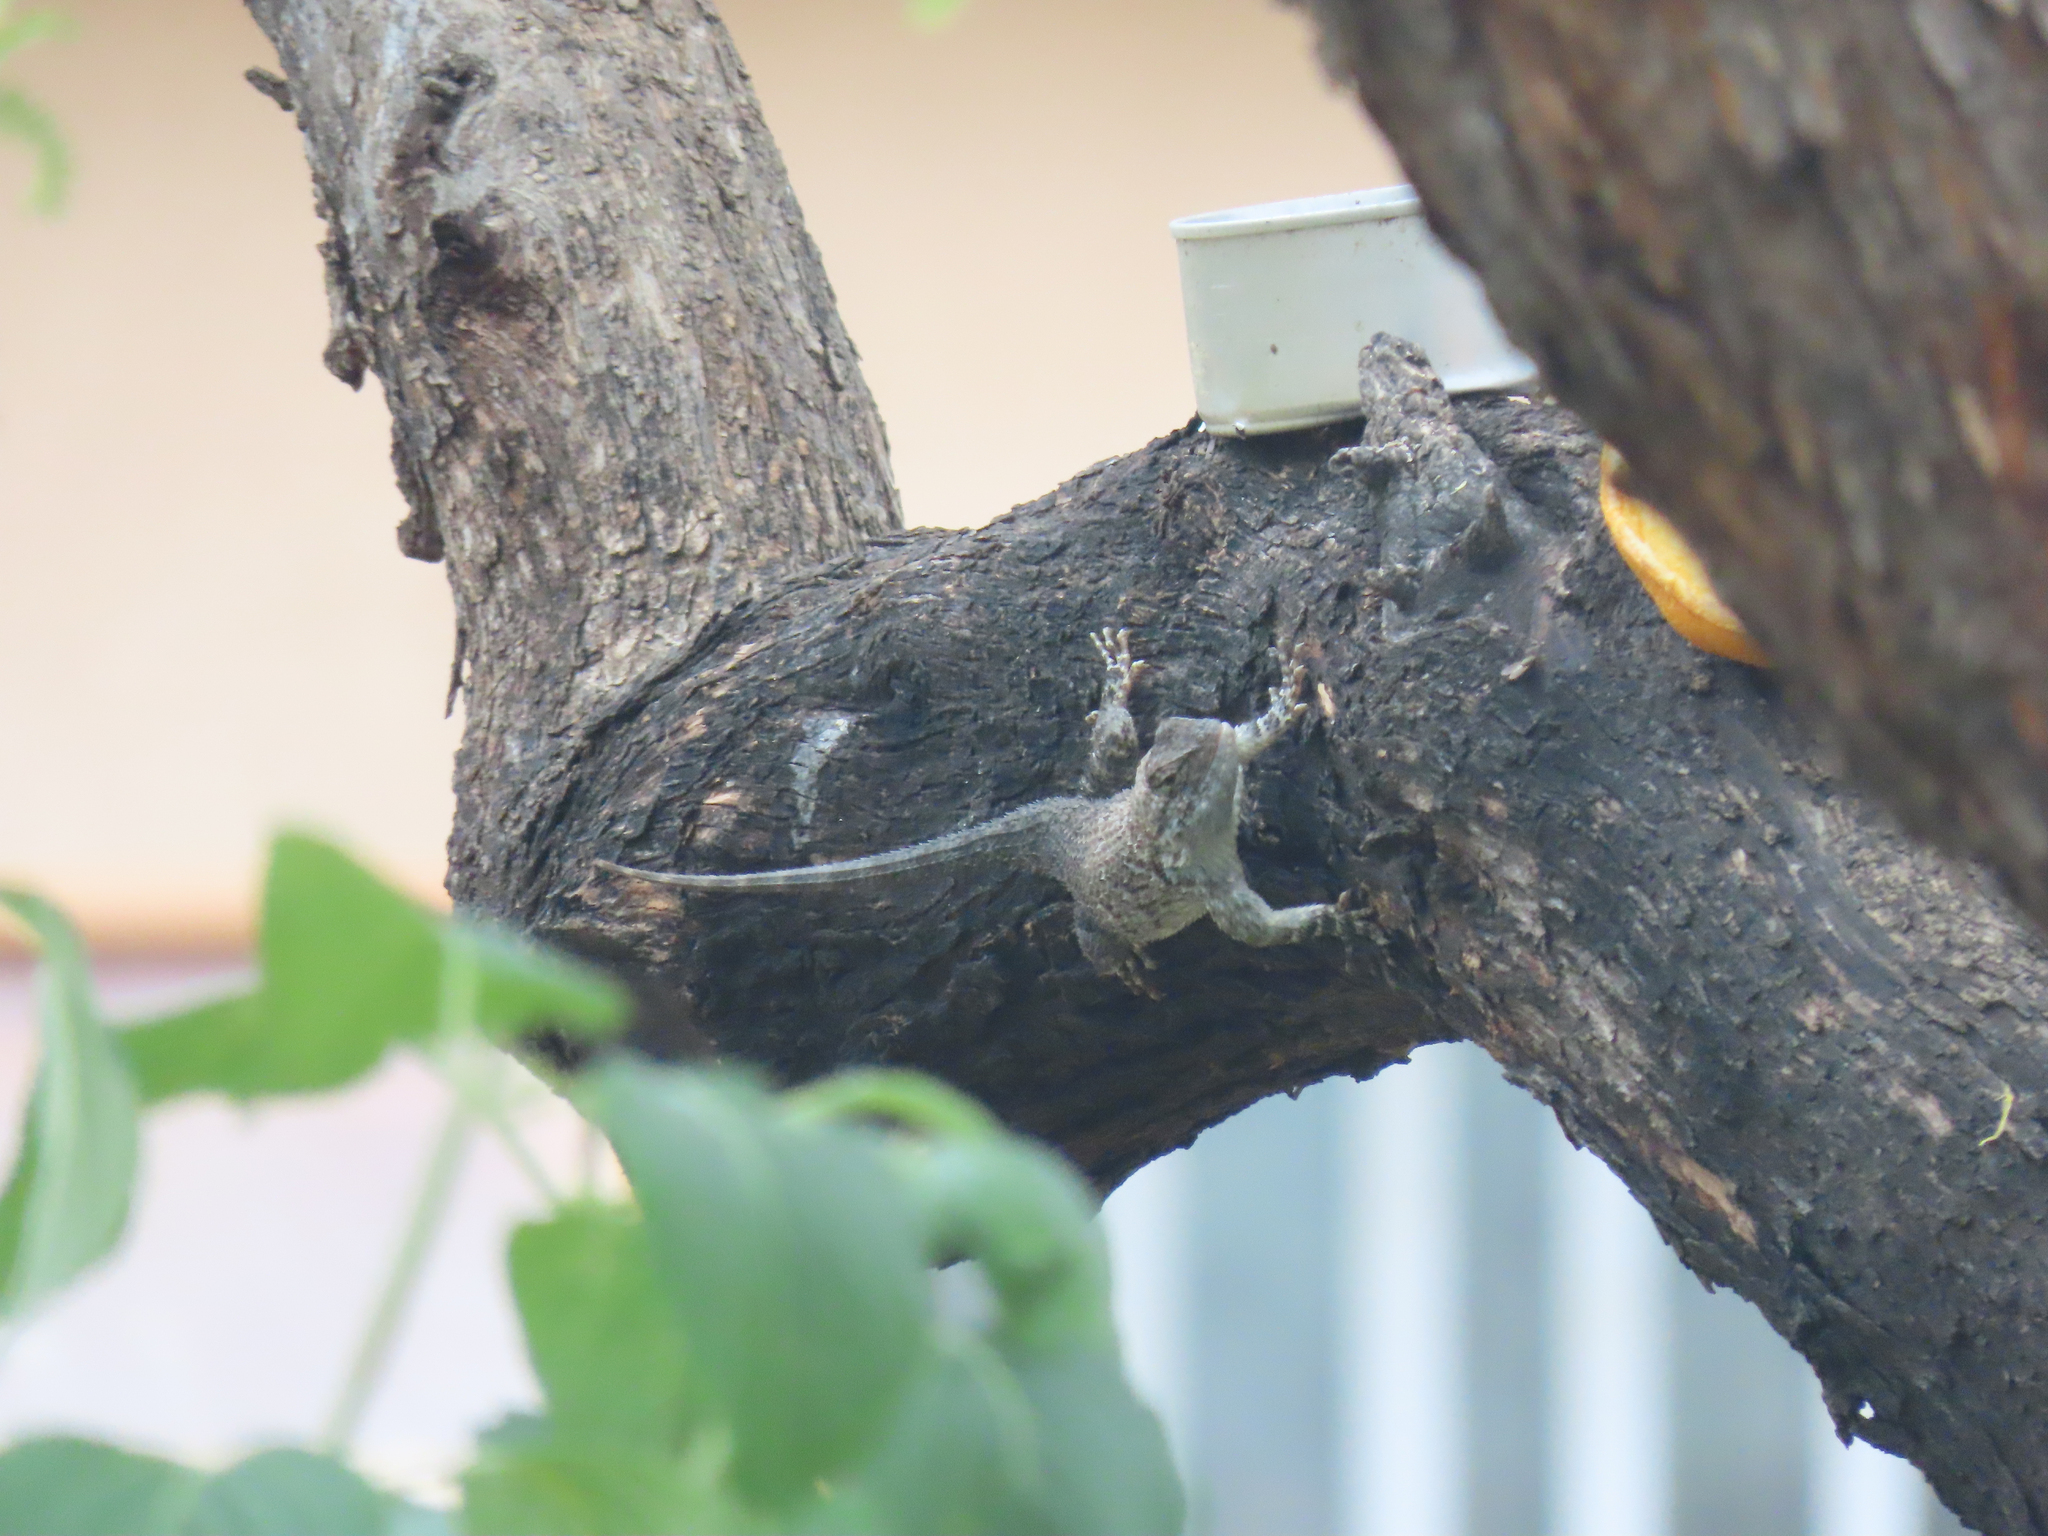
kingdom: Animalia
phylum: Chordata
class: Squamata
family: Phrynosomatidae
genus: Sceloporus
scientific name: Sceloporus clarkii
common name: Clark's spiny lizard
